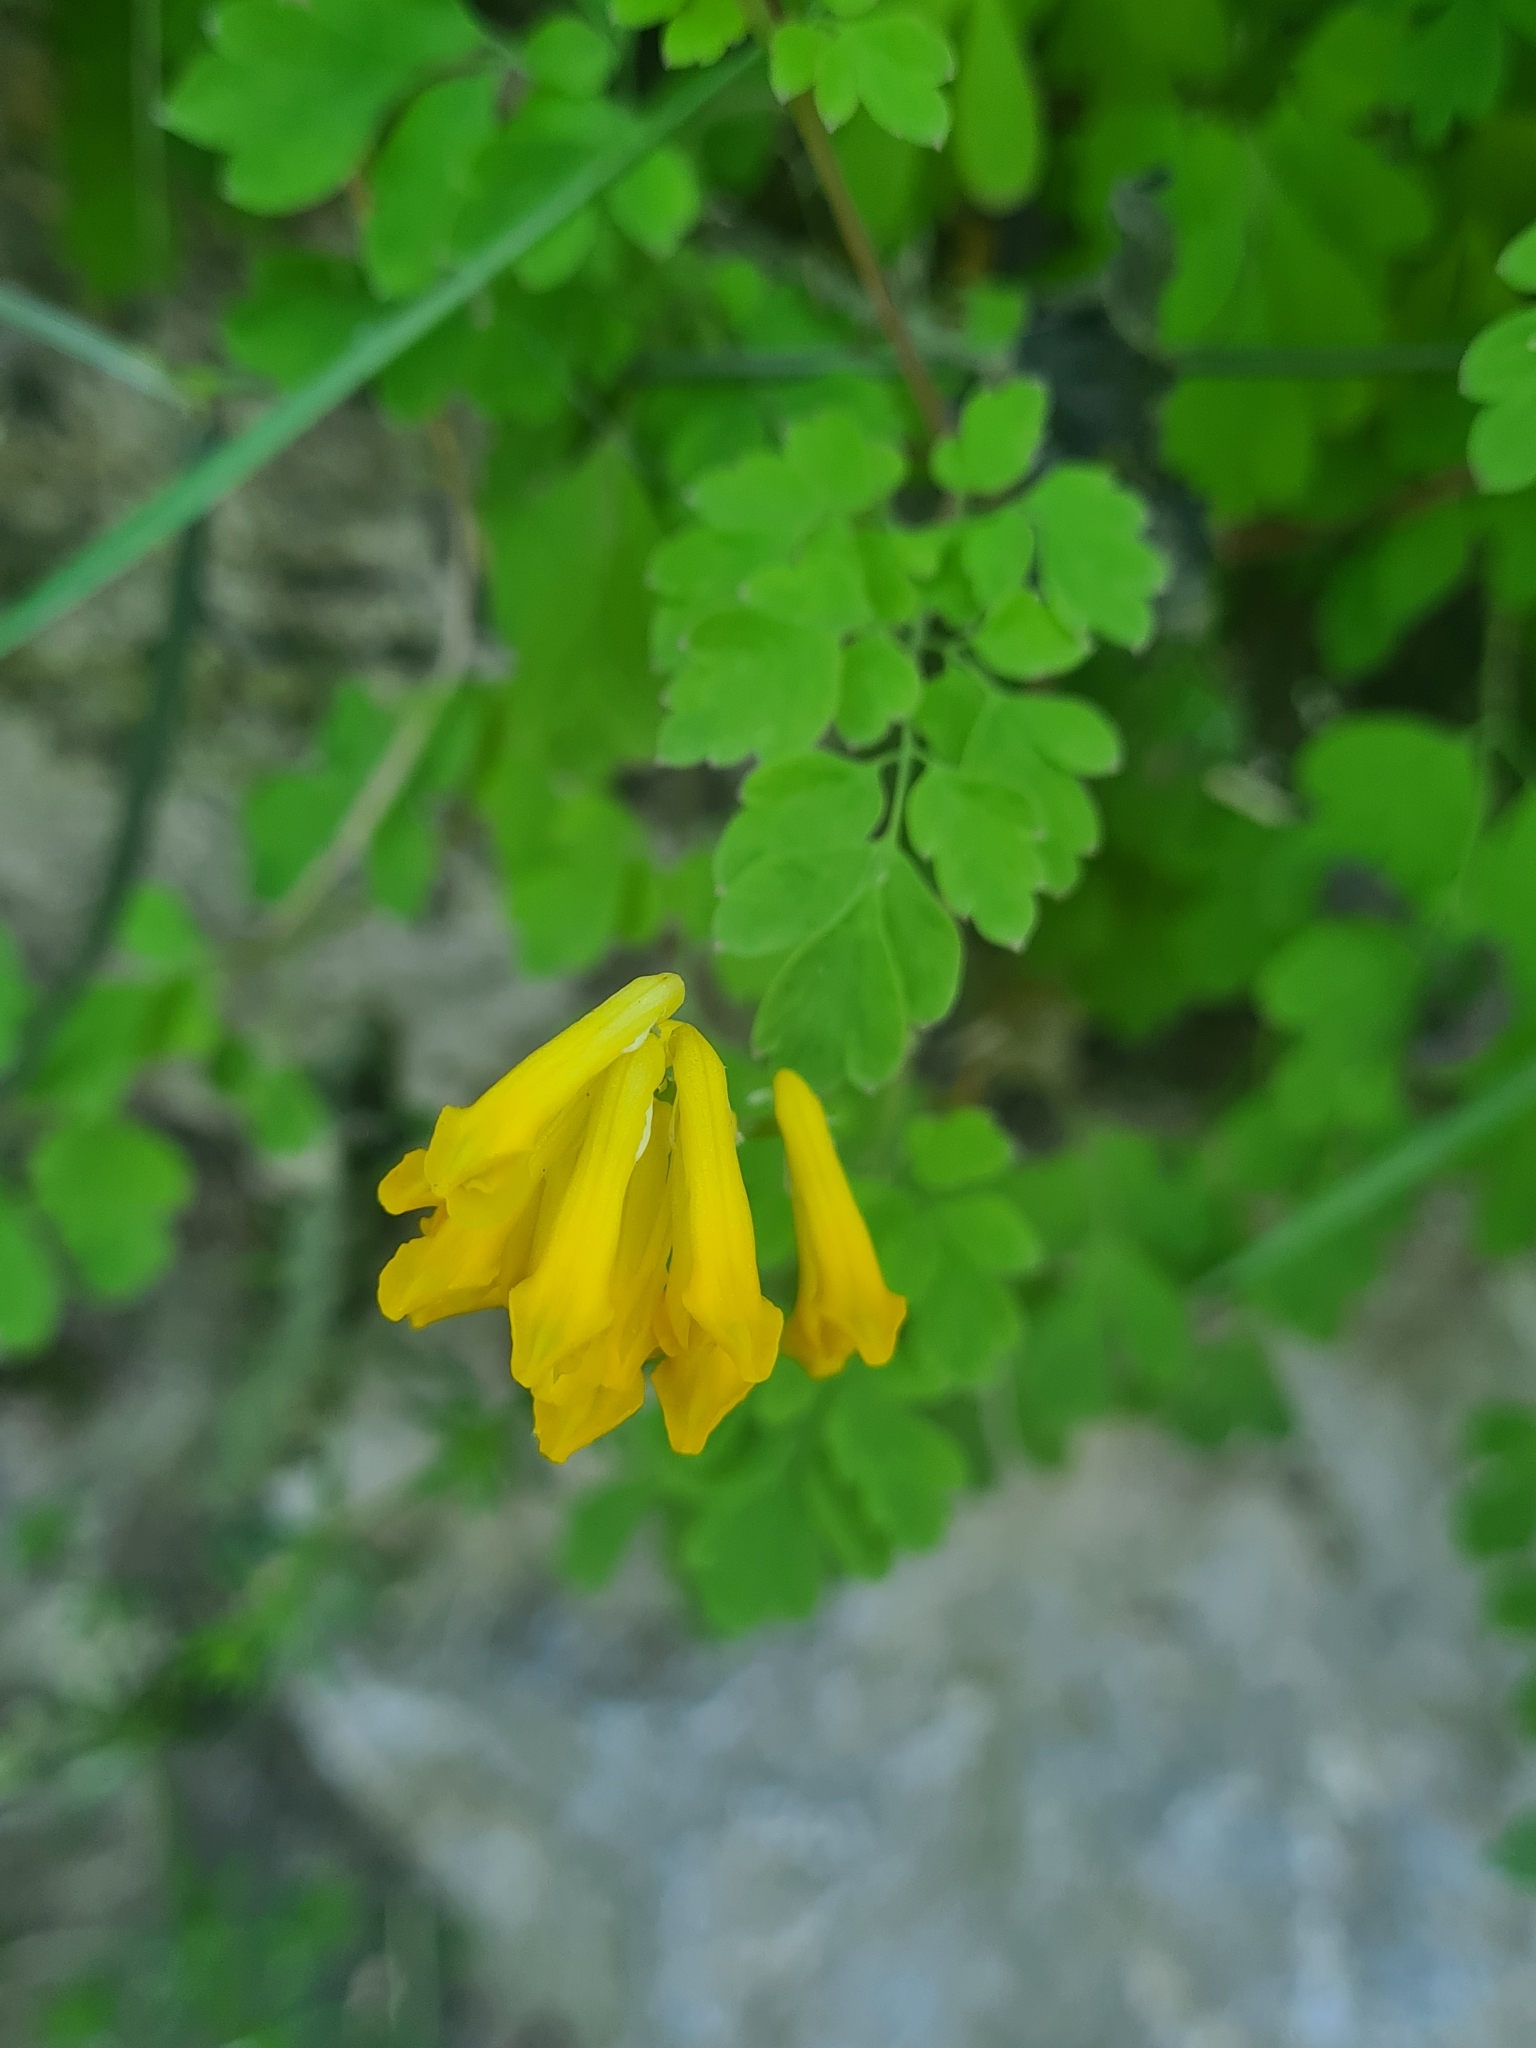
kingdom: Plantae
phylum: Tracheophyta
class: Magnoliopsida
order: Ranunculales
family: Papaveraceae
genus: Pseudofumaria
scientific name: Pseudofumaria lutea
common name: Yellow corydalis
